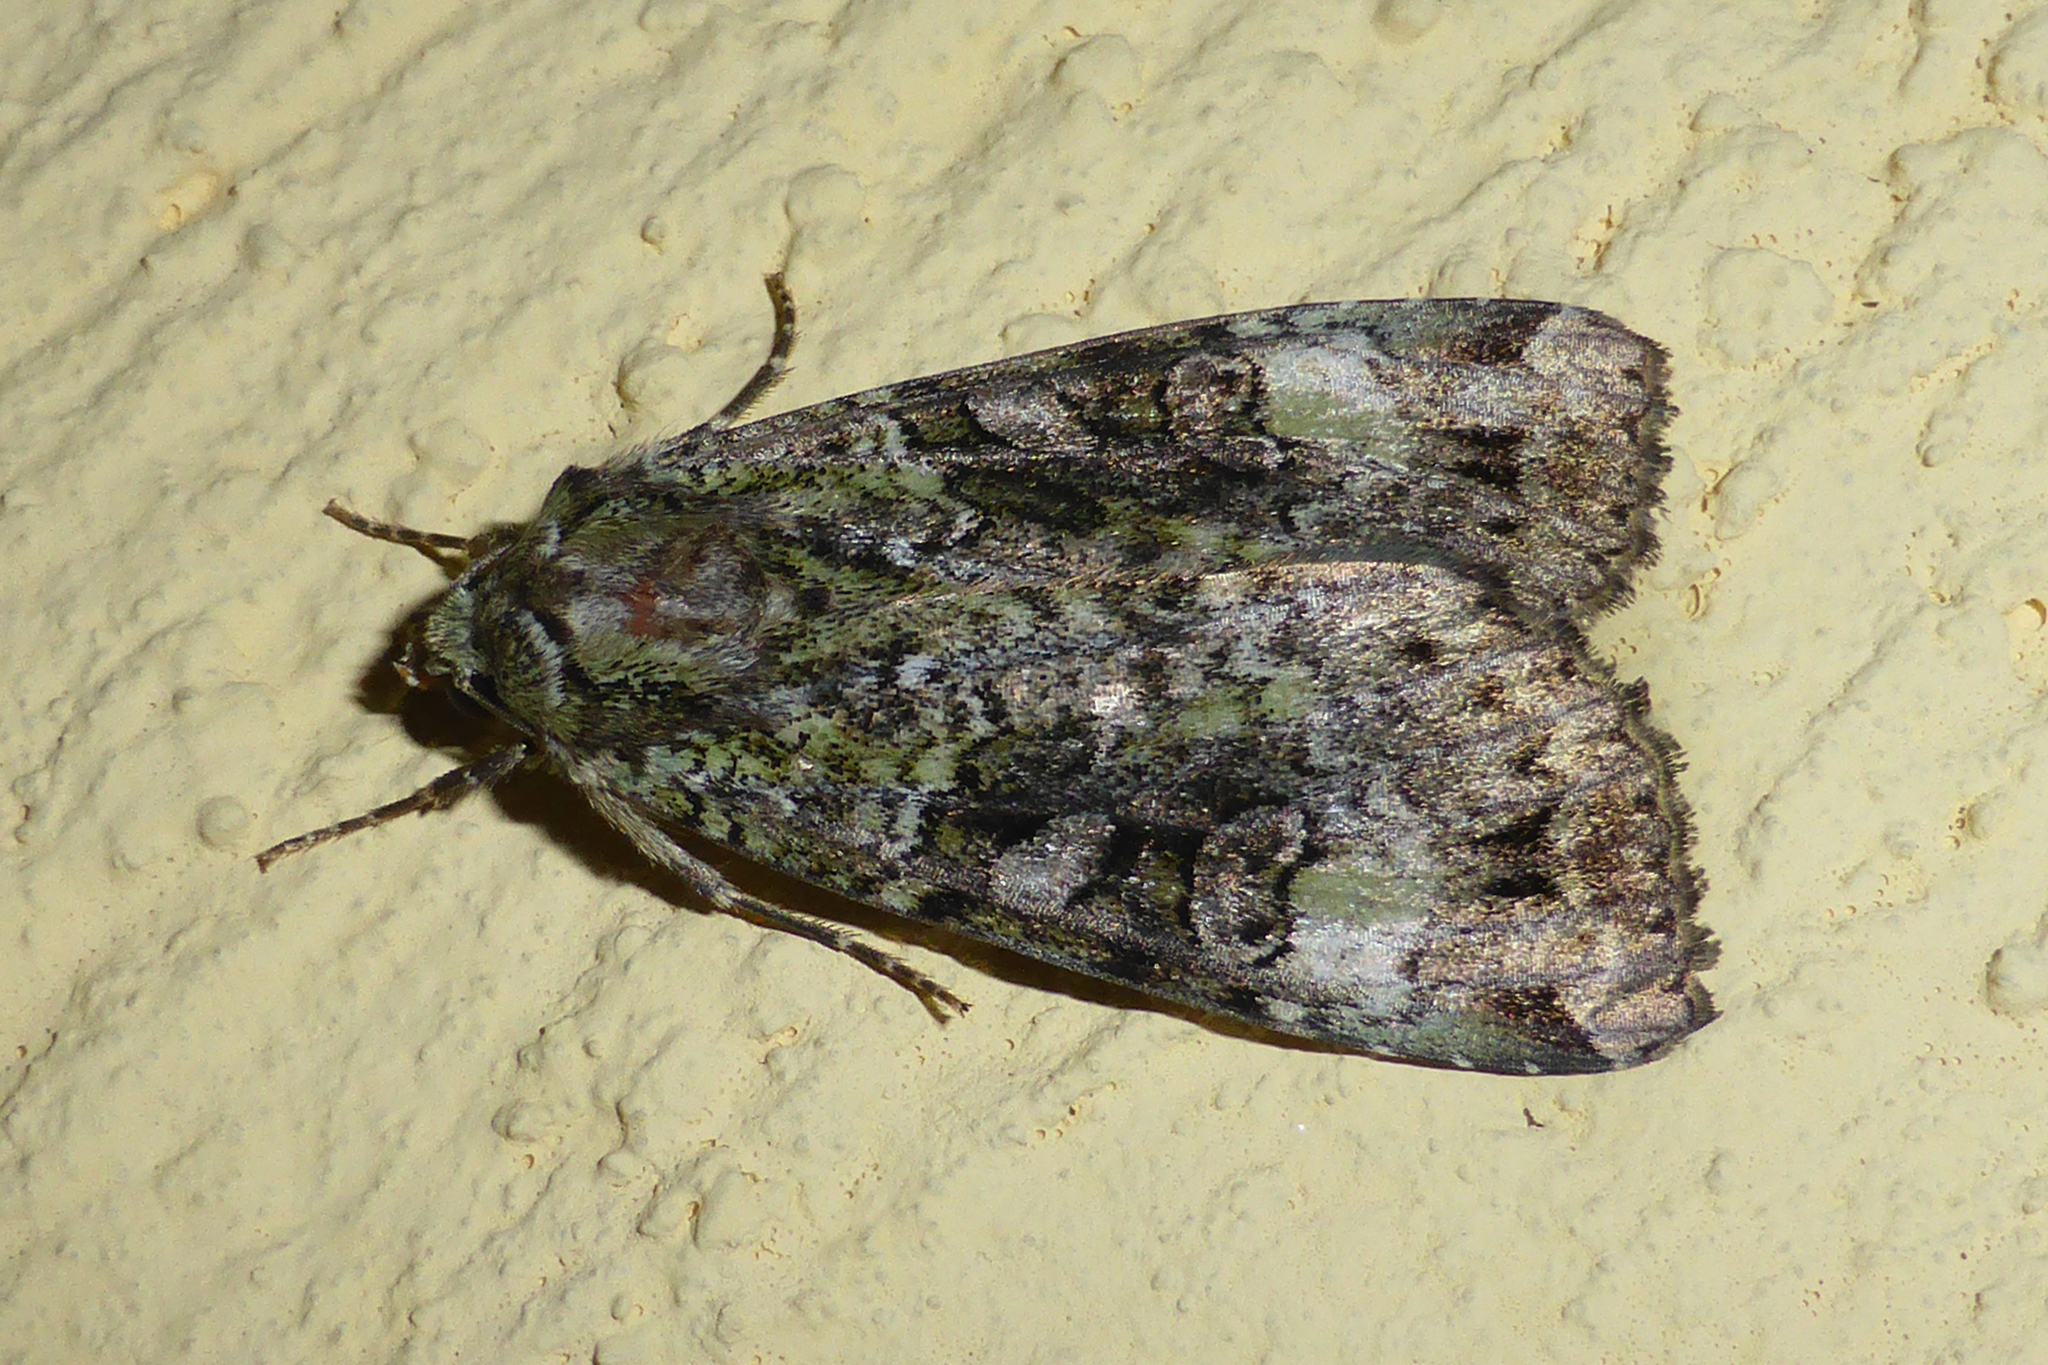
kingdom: Animalia
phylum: Arthropoda
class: Insecta
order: Lepidoptera
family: Noctuidae
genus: Anaplectoides
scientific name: Anaplectoides prasina
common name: Green arches
